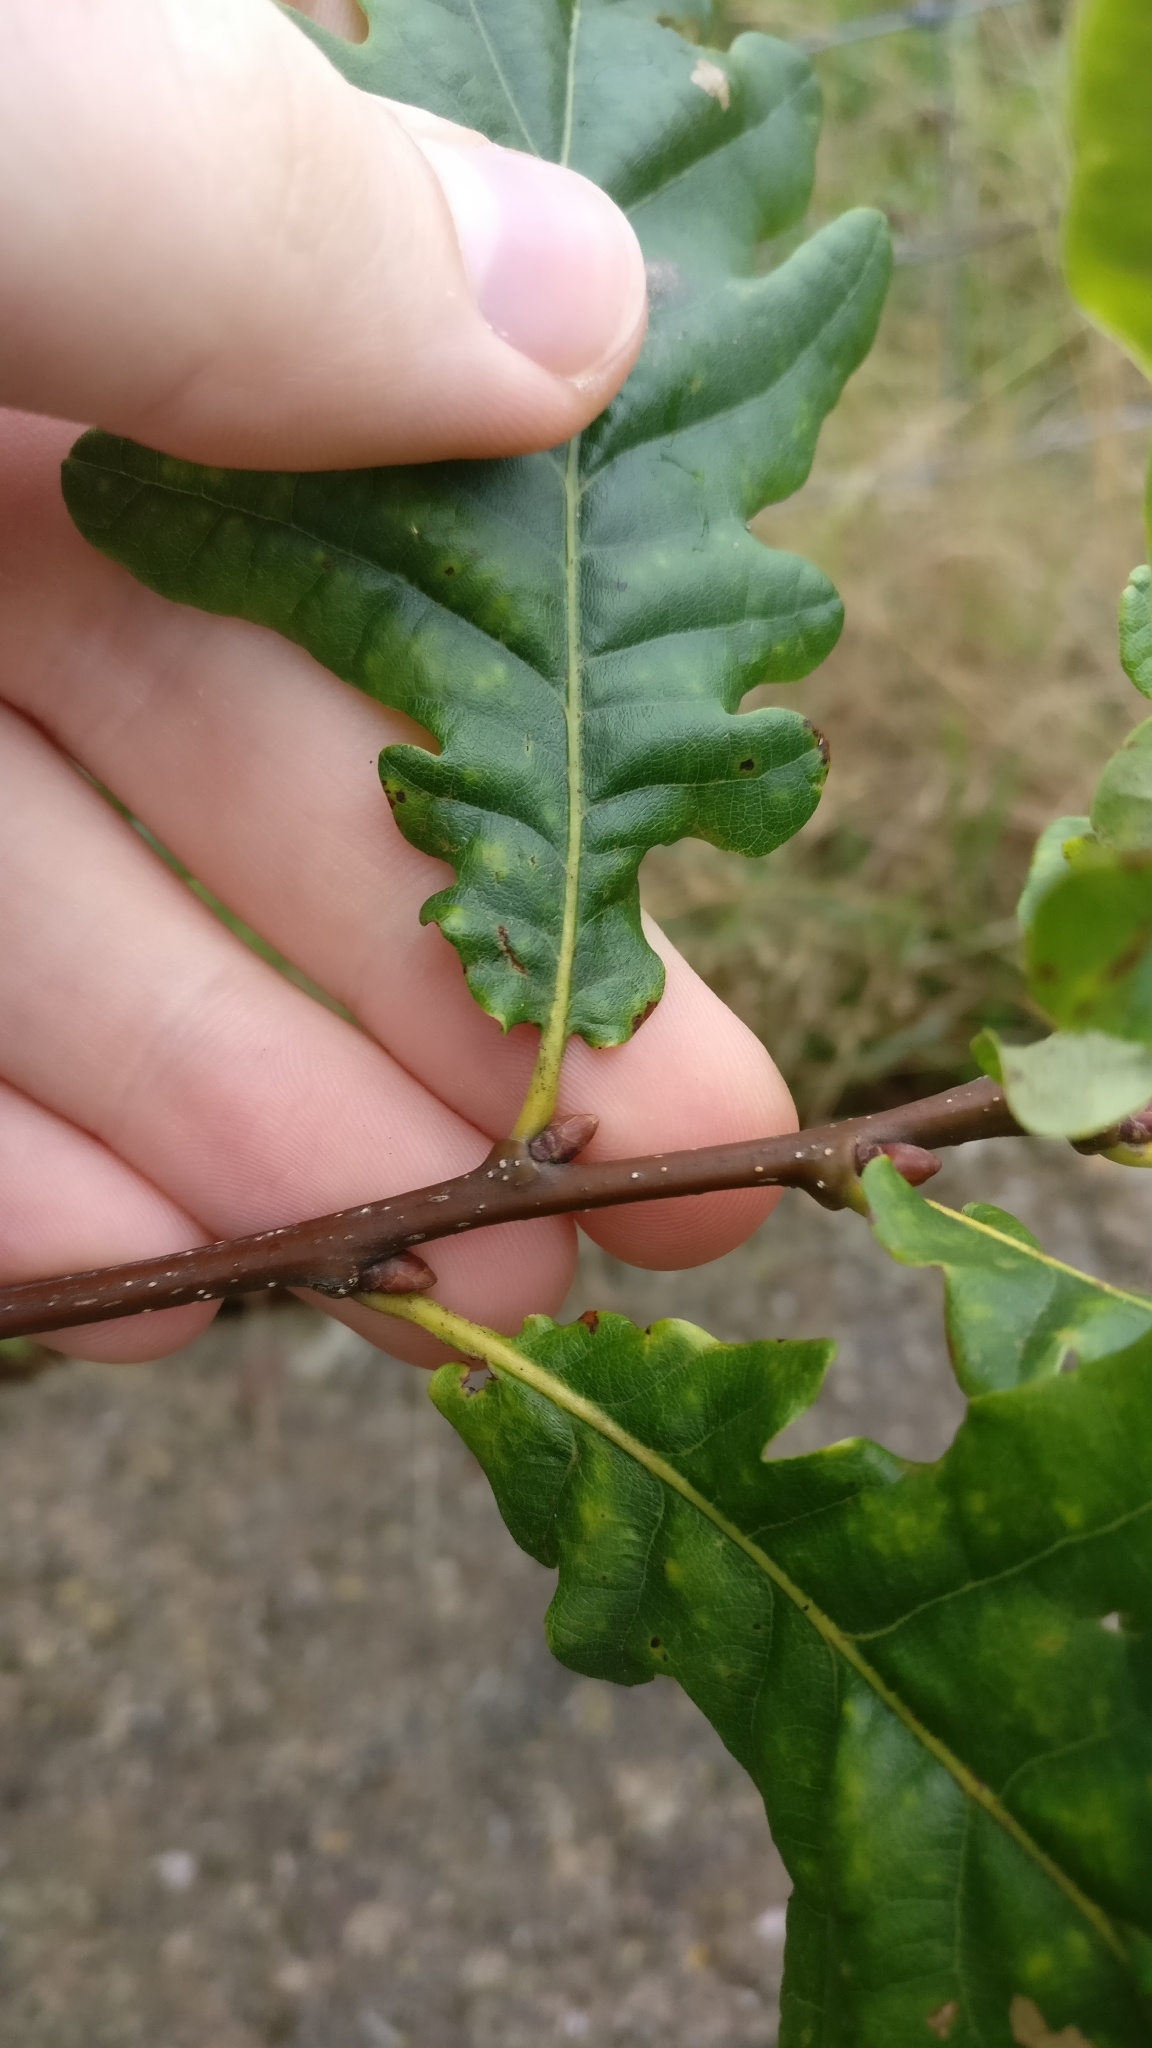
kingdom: Plantae
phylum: Tracheophyta
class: Magnoliopsida
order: Fagales
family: Fagaceae
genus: Quercus
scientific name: Quercus robur
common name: Pedunculate oak
